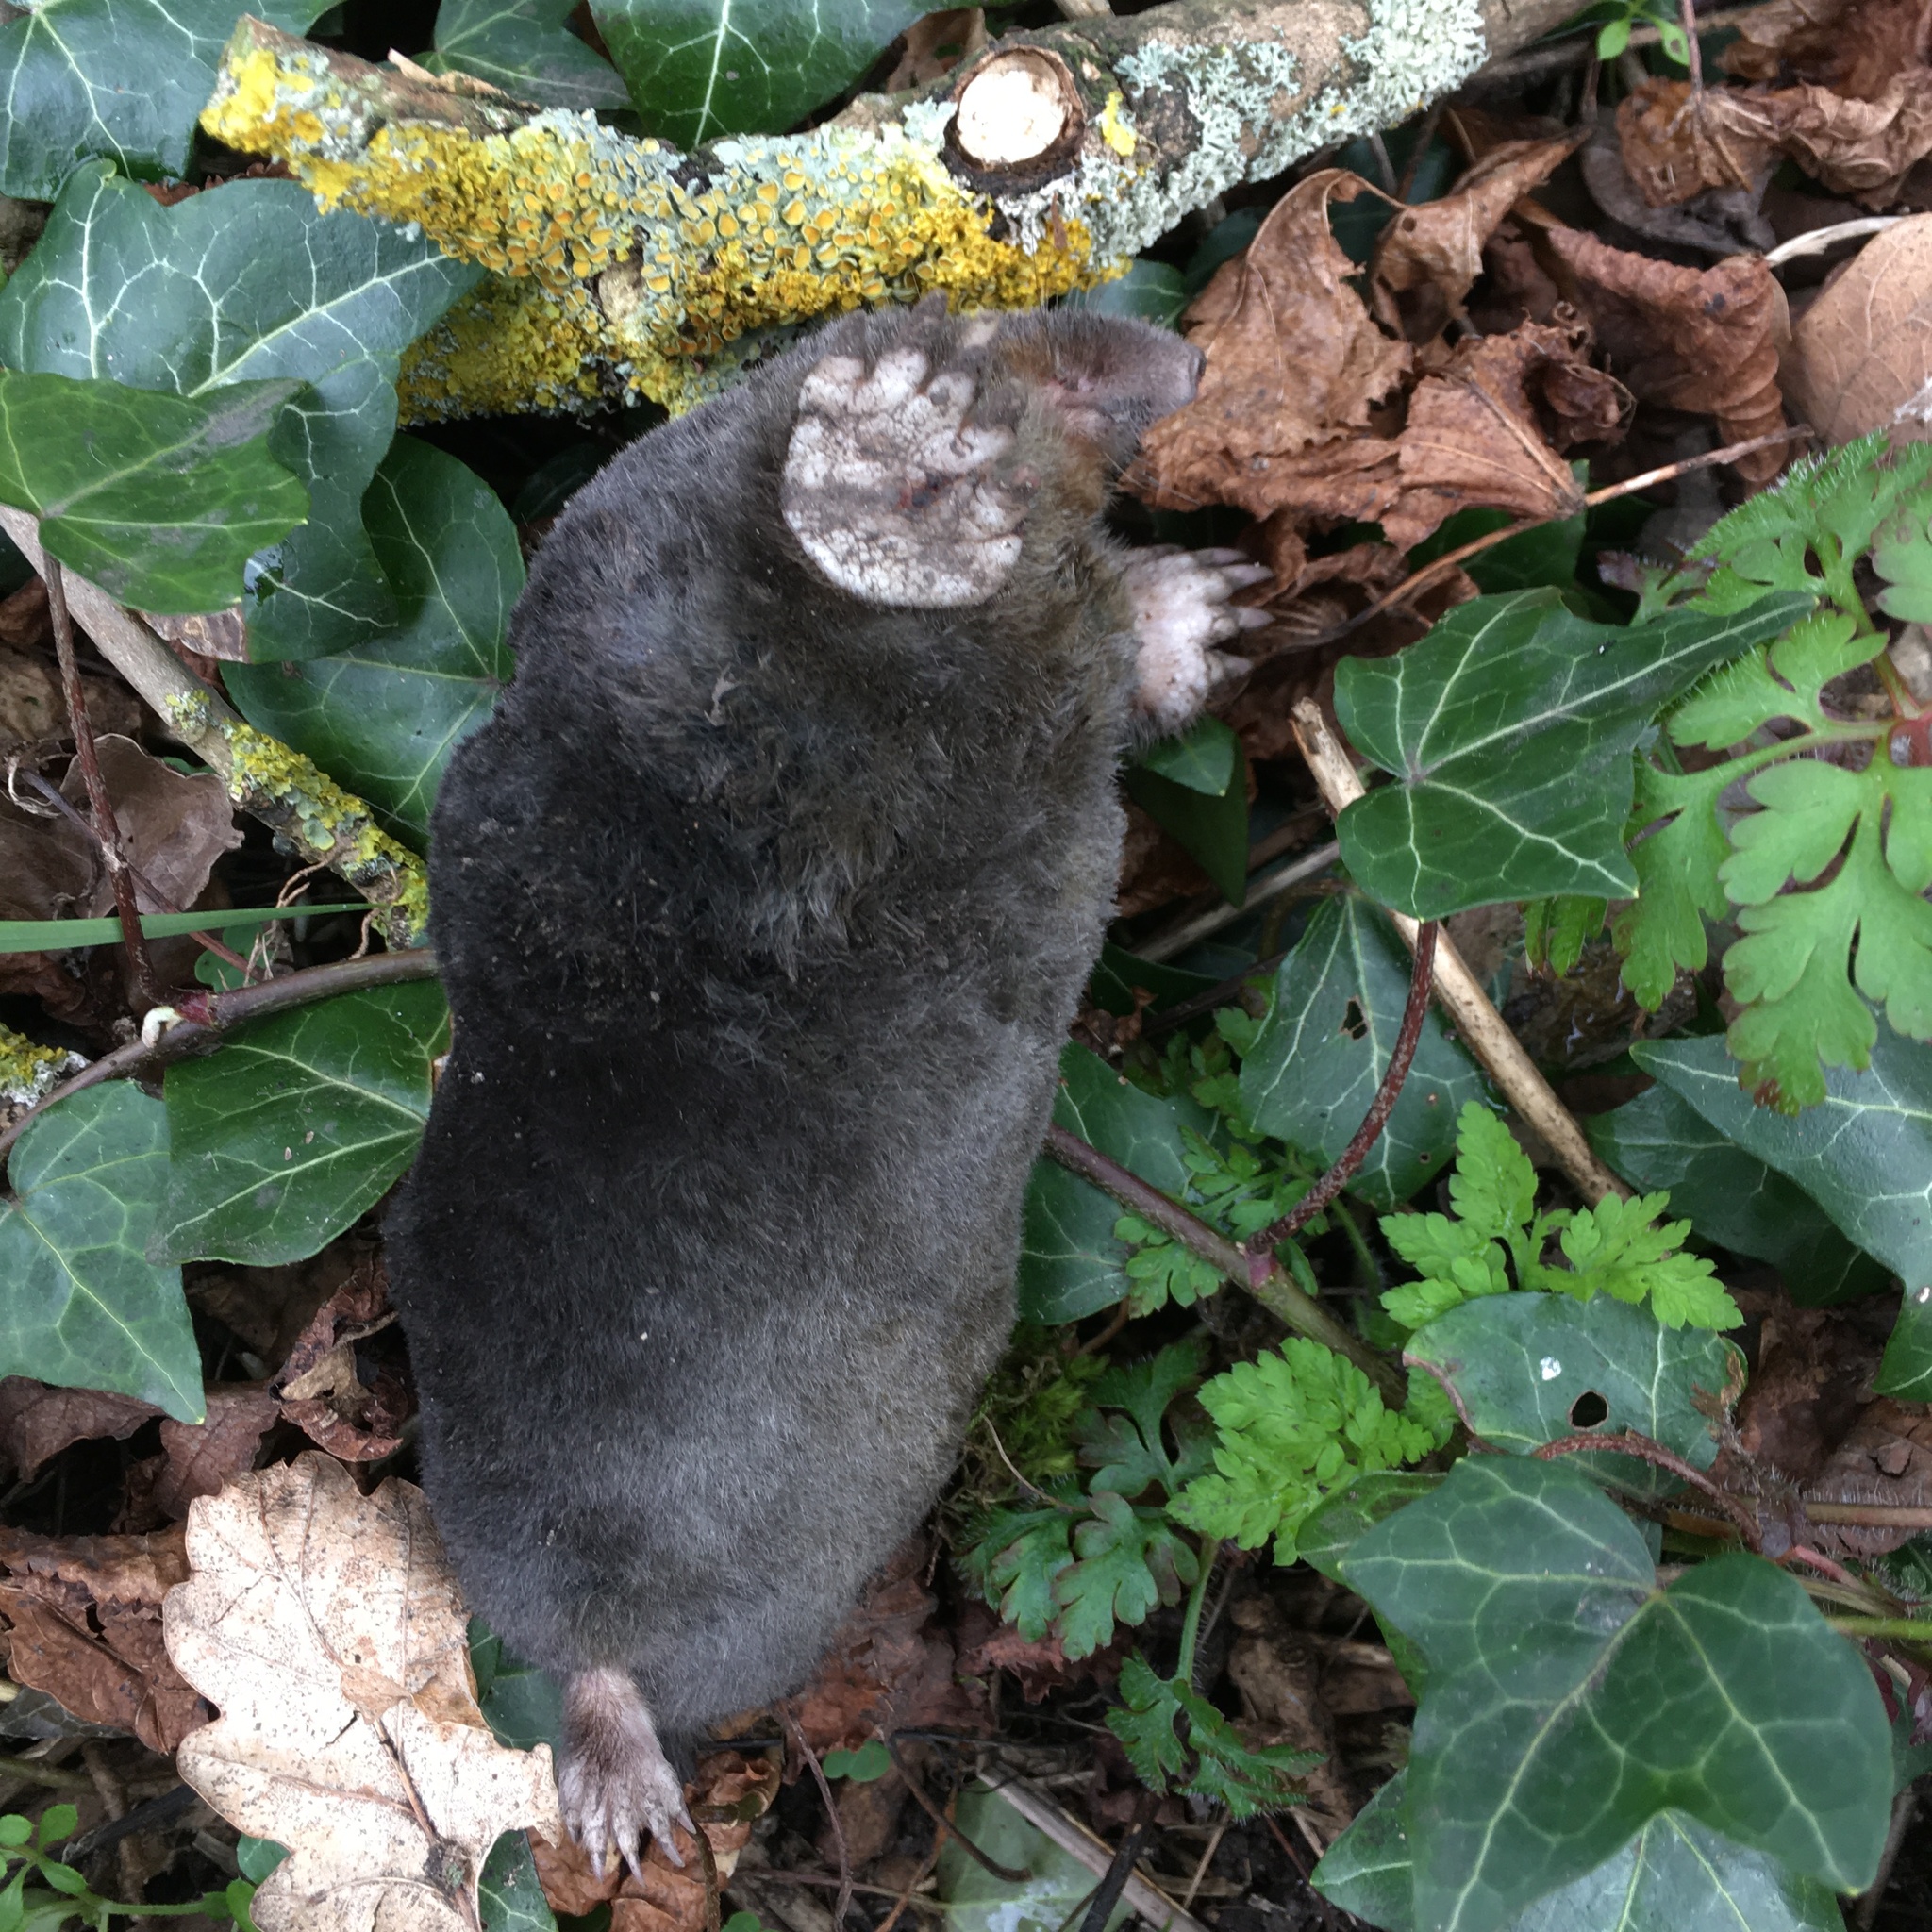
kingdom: Animalia
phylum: Chordata
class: Mammalia
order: Soricomorpha
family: Talpidae
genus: Talpa
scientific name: Talpa europaea
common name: European mole
